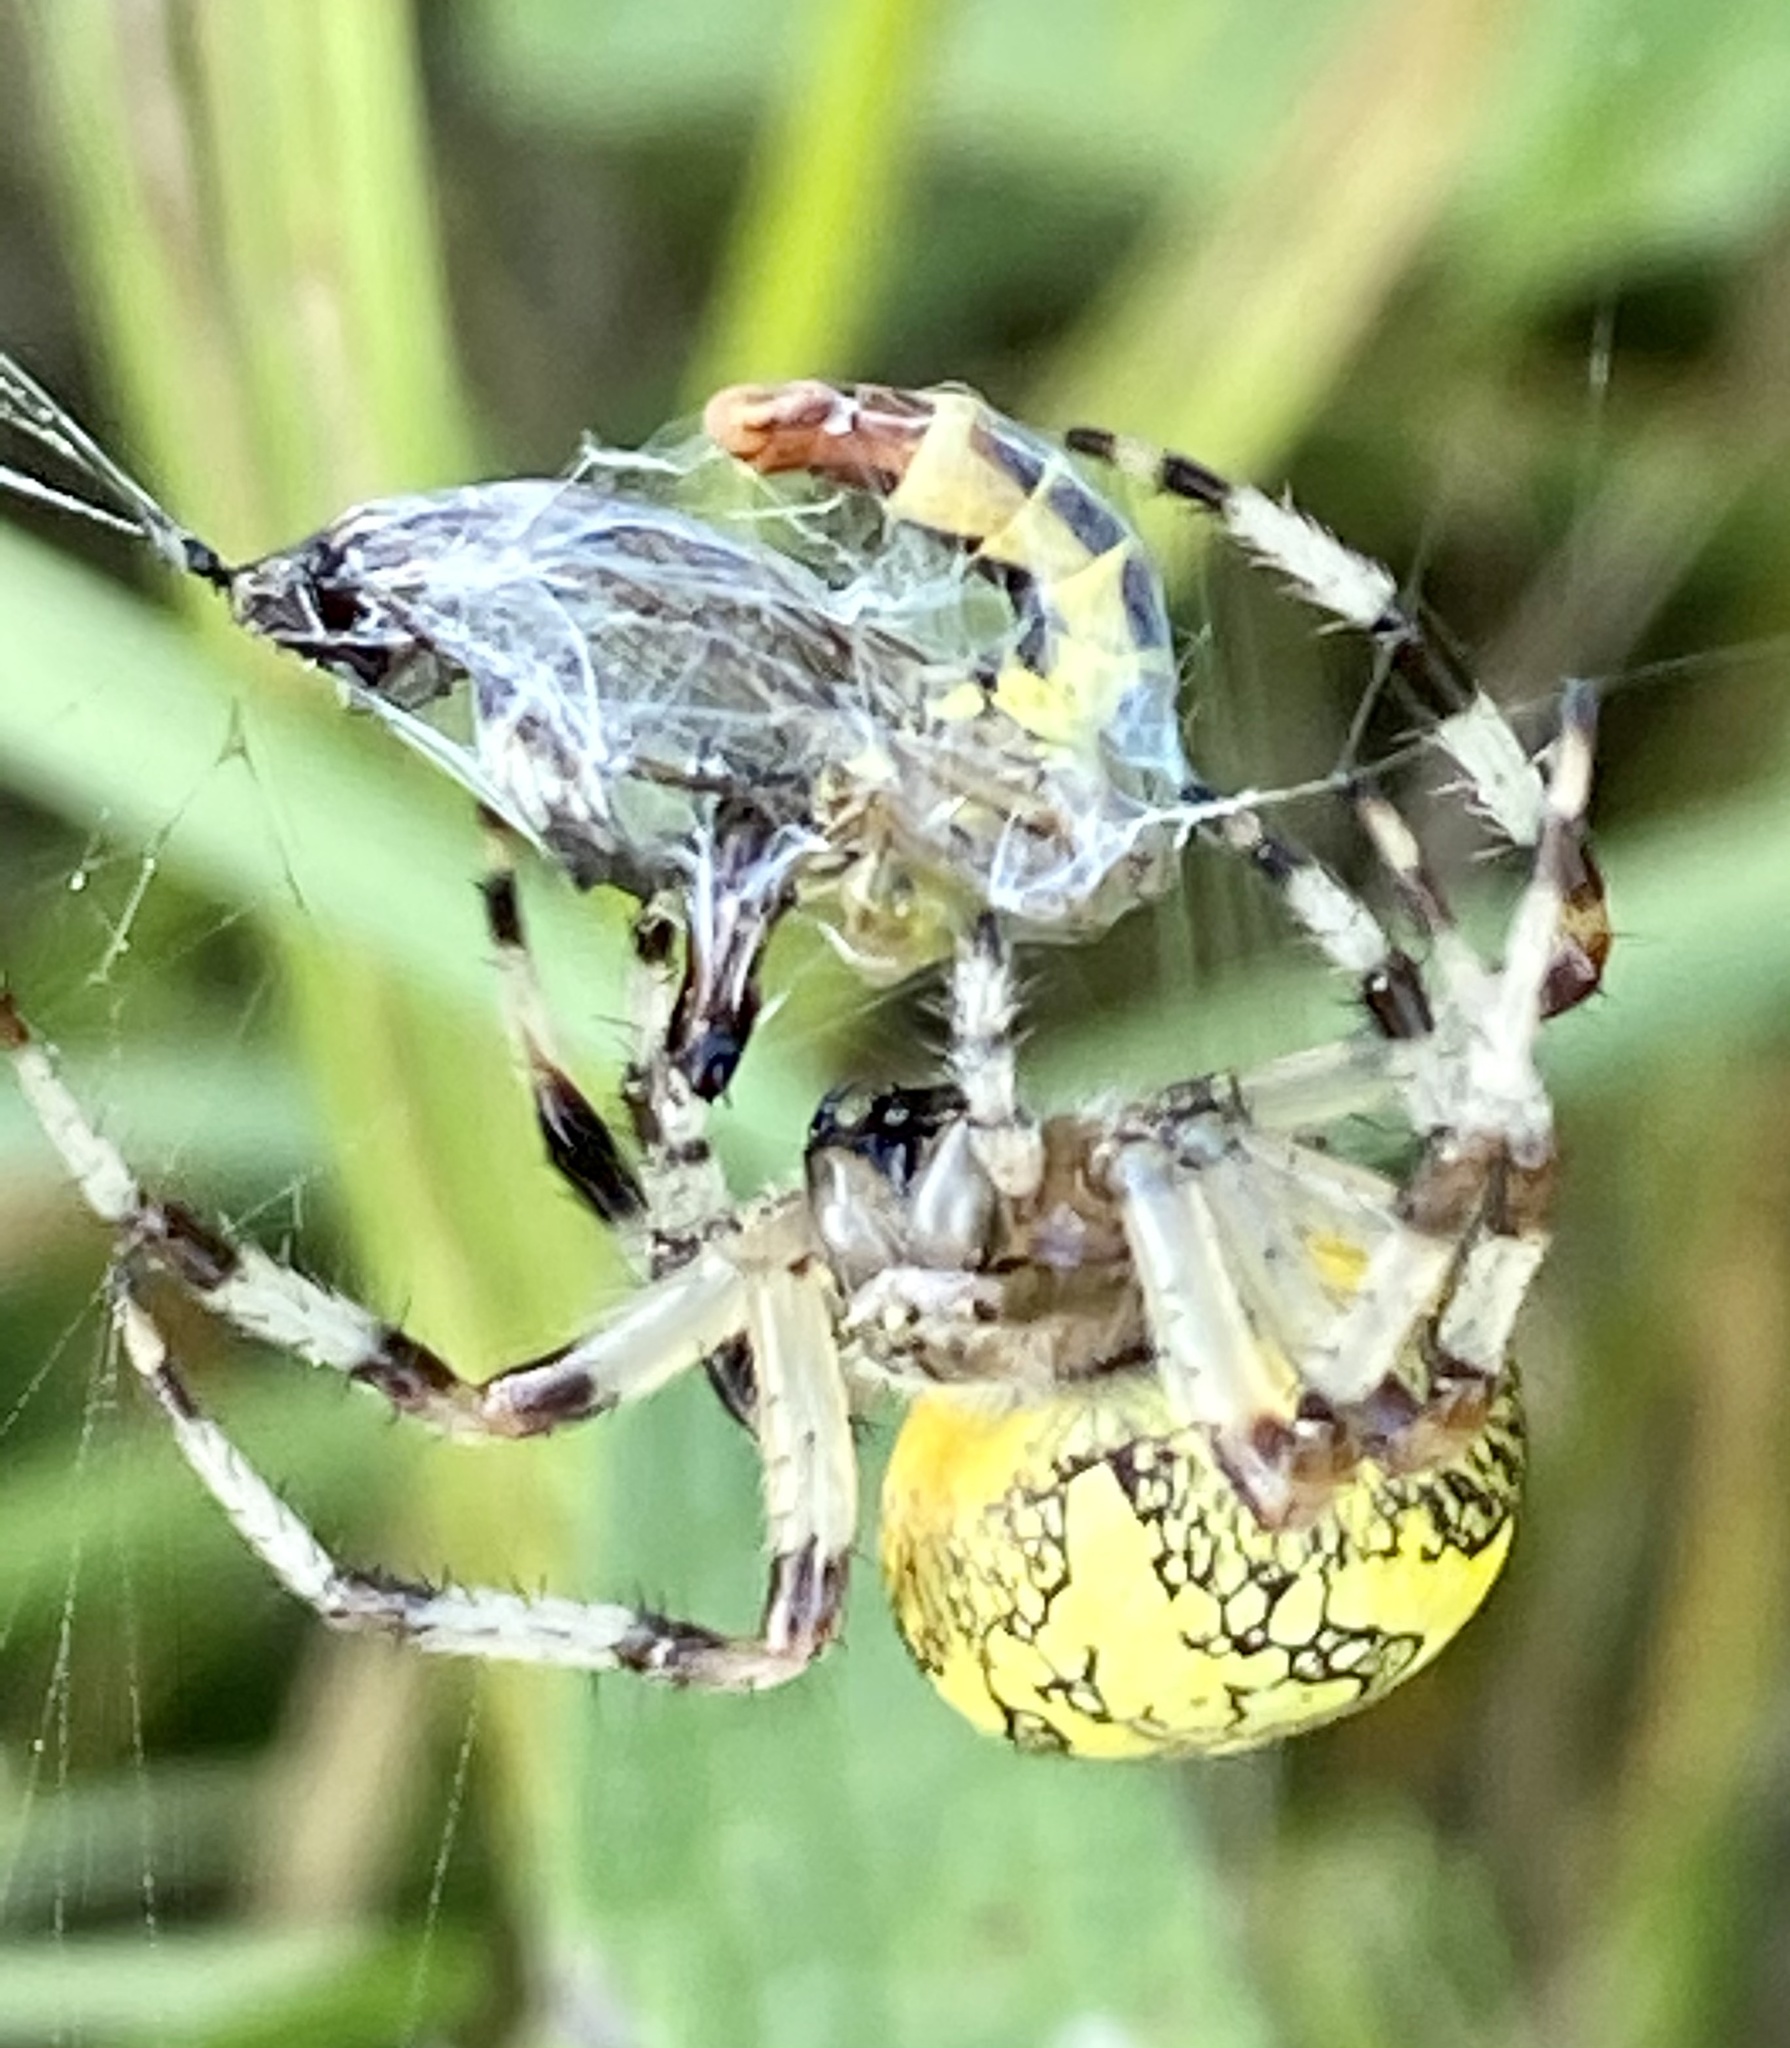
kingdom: Animalia
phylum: Arthropoda
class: Arachnida
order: Araneae
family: Araneidae
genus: Araneus
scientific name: Araneus marmoreus
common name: Marbled orbweaver
